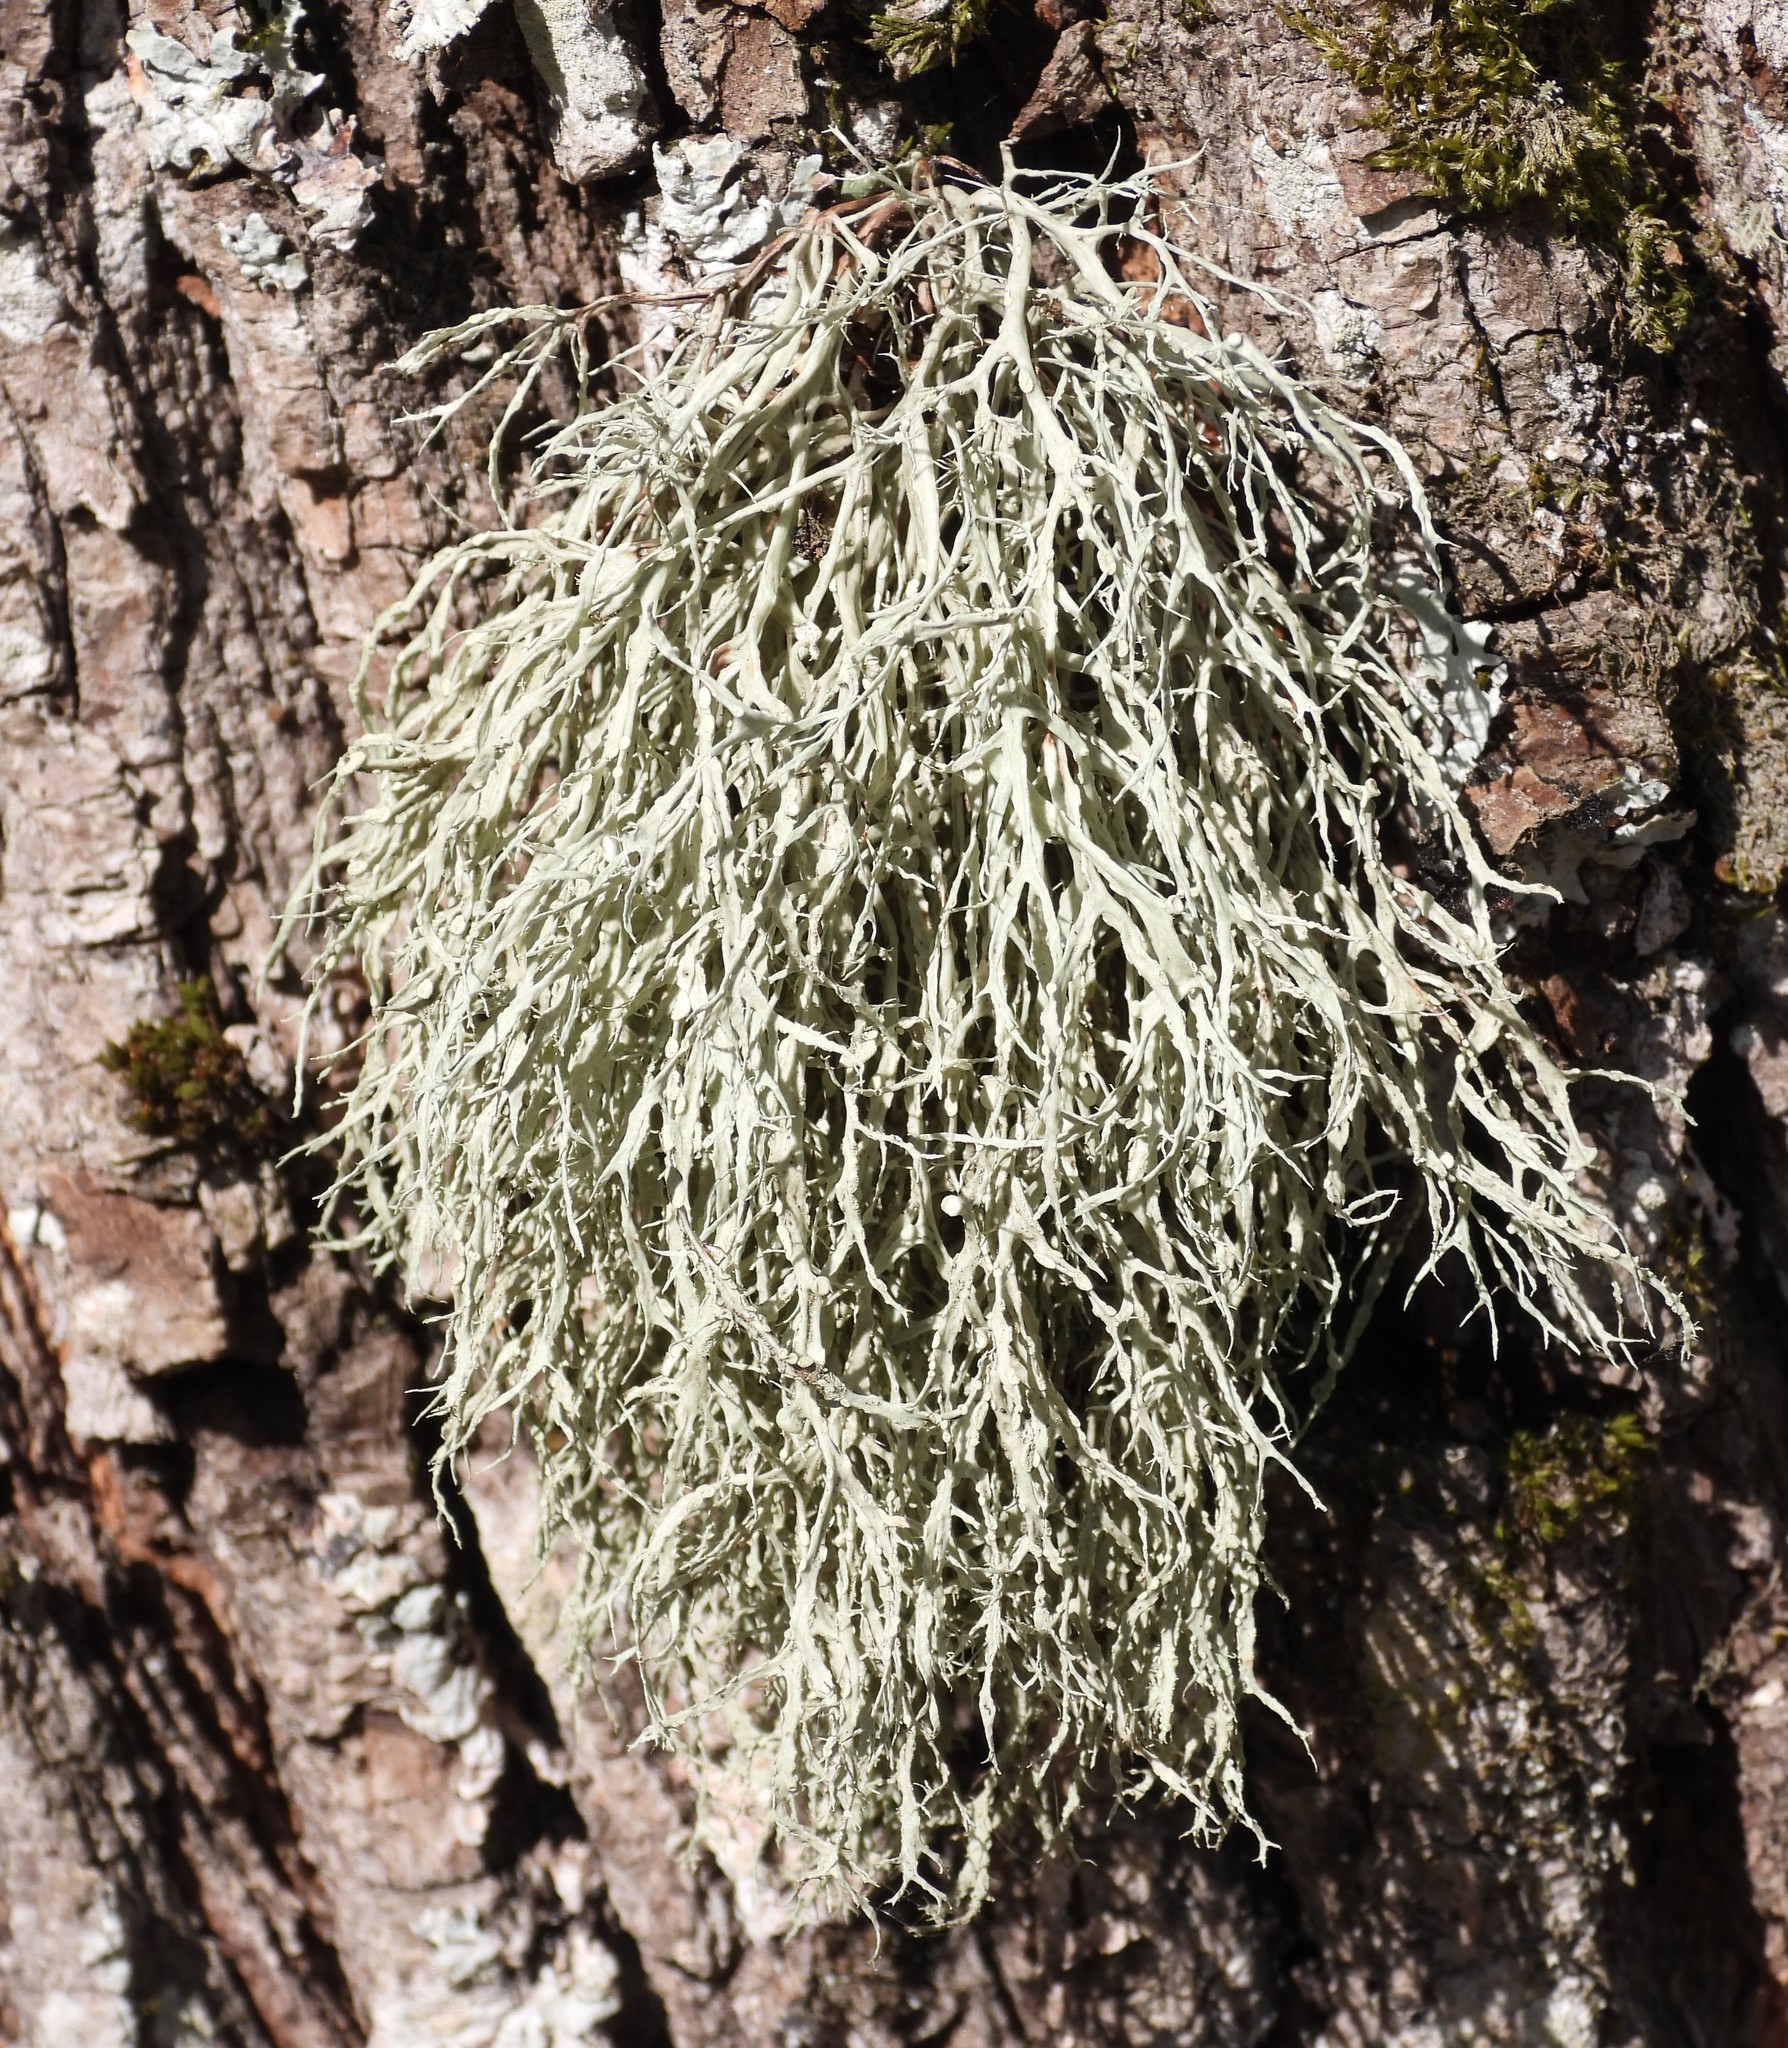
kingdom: Fungi
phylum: Ascomycota
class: Lecanoromycetes
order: Lecanorales
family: Ramalinaceae
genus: Ramalina
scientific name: Ramalina farinacea
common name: Farinose cartilage lichen
